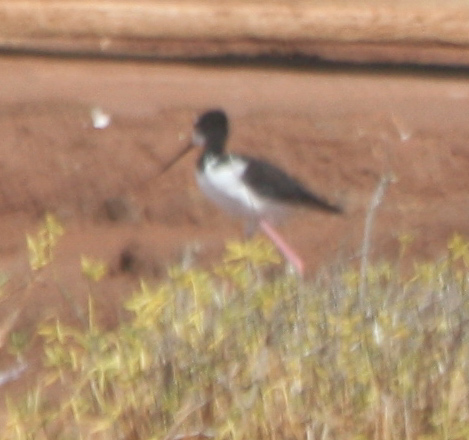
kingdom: Animalia
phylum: Chordata
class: Aves
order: Charadriiformes
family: Recurvirostridae
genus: Himantopus
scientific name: Himantopus mexicanus
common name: Black-necked stilt
